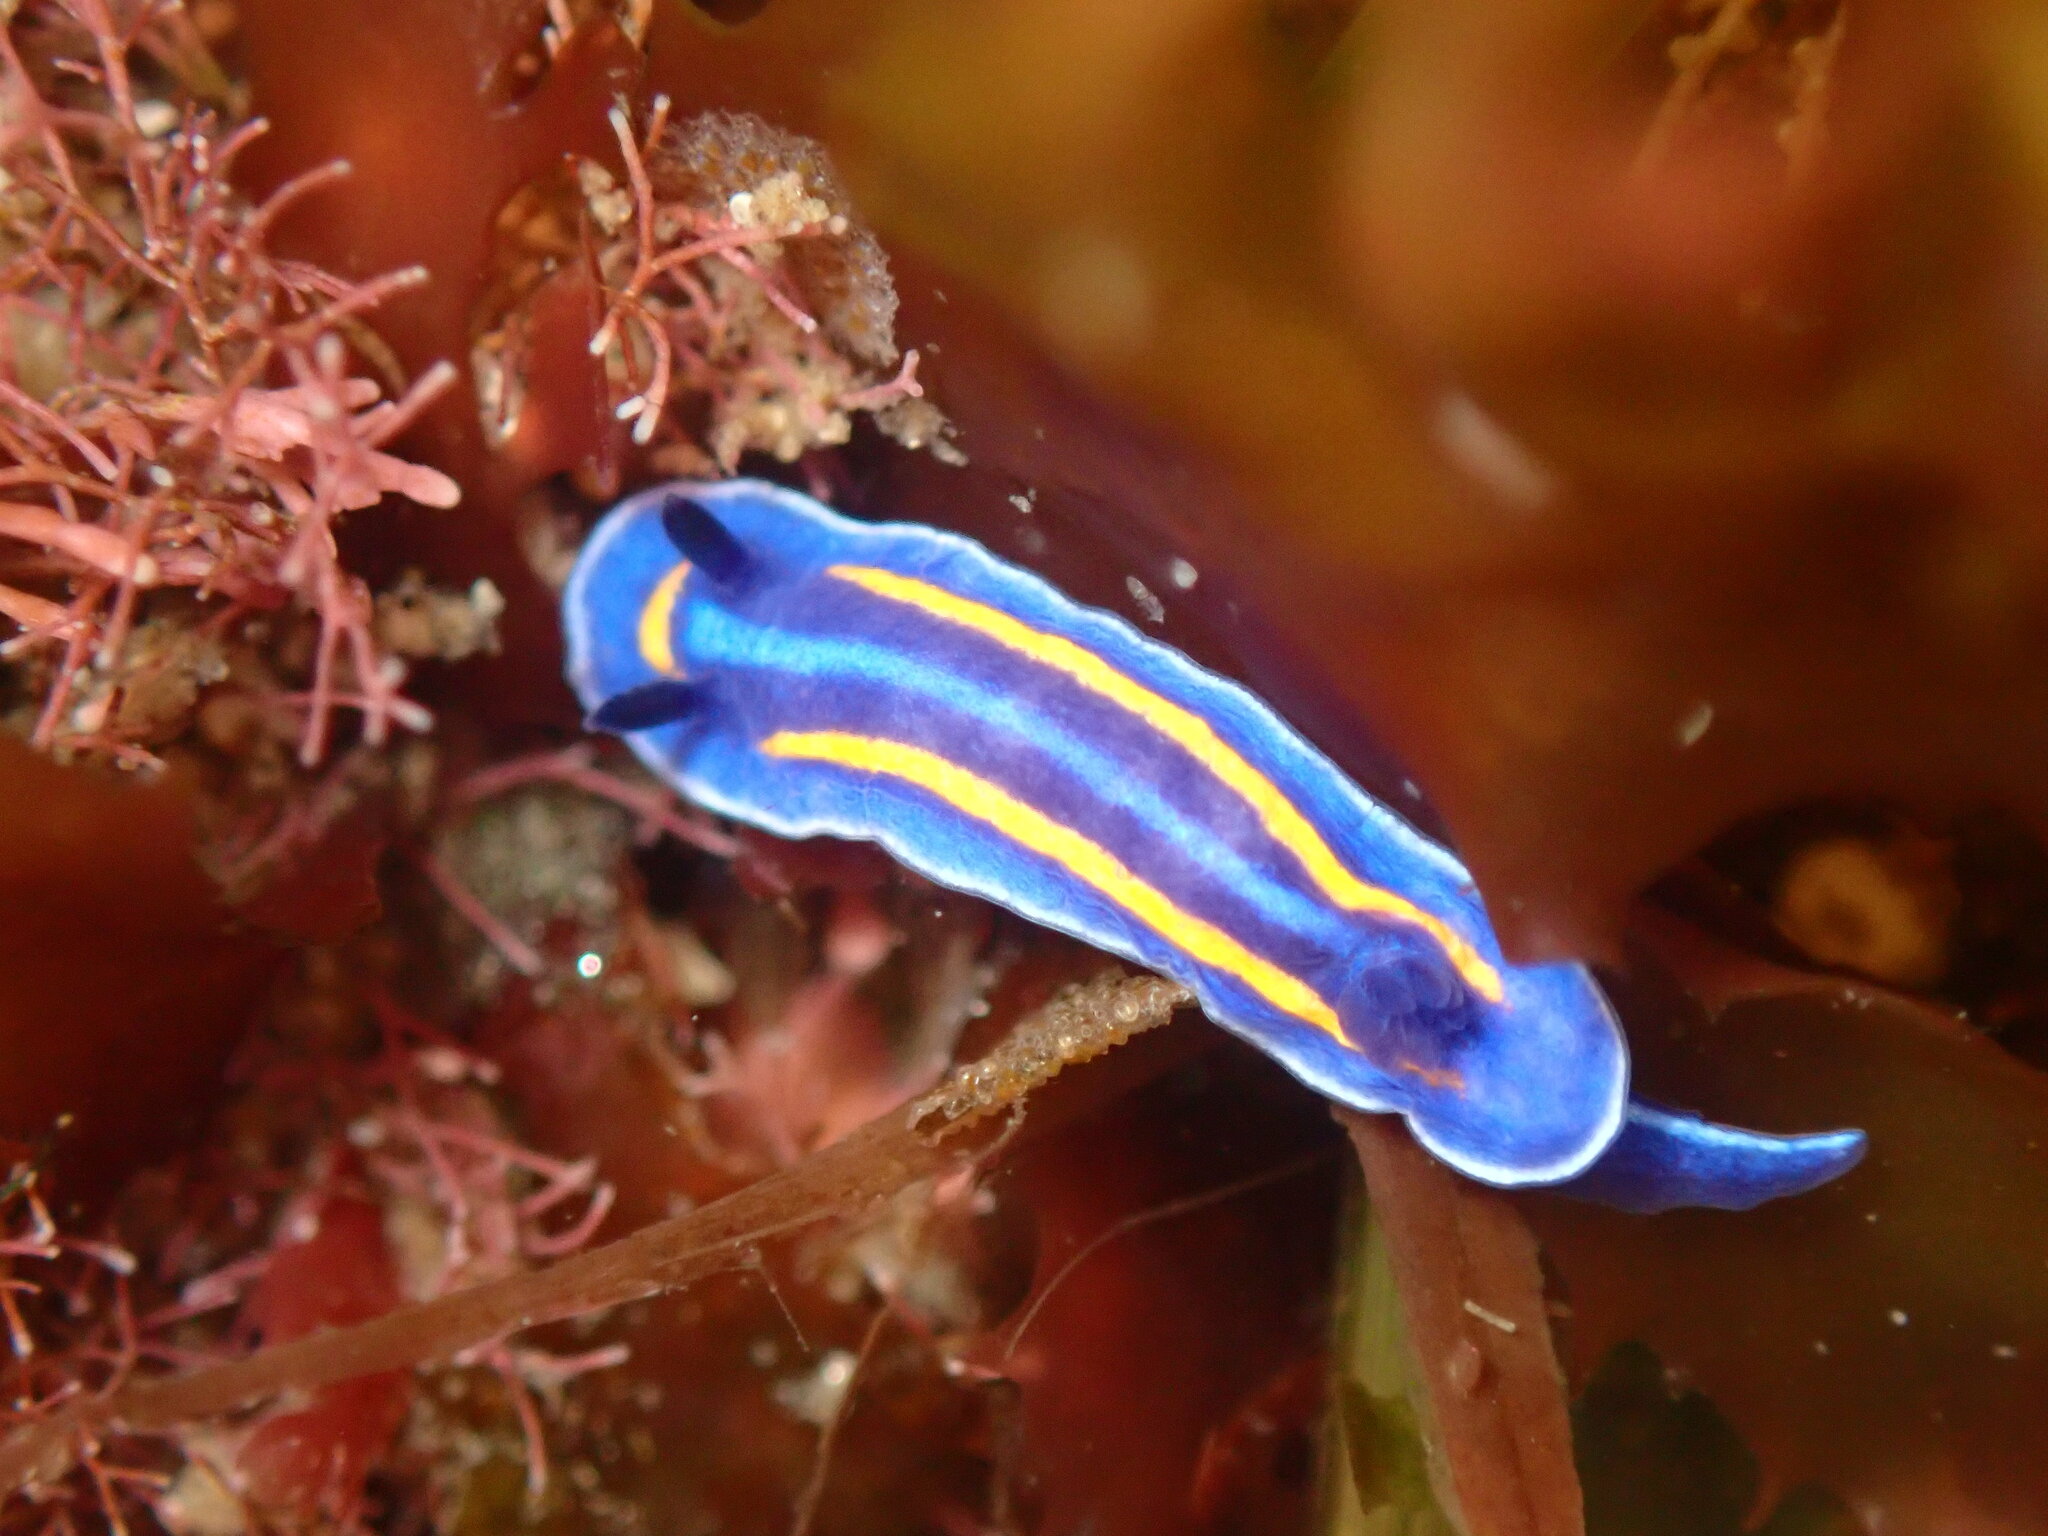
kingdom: Animalia
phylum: Mollusca
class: Gastropoda
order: Nudibranchia
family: Chromodorididae
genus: Felimare
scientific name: Felimare porterae
